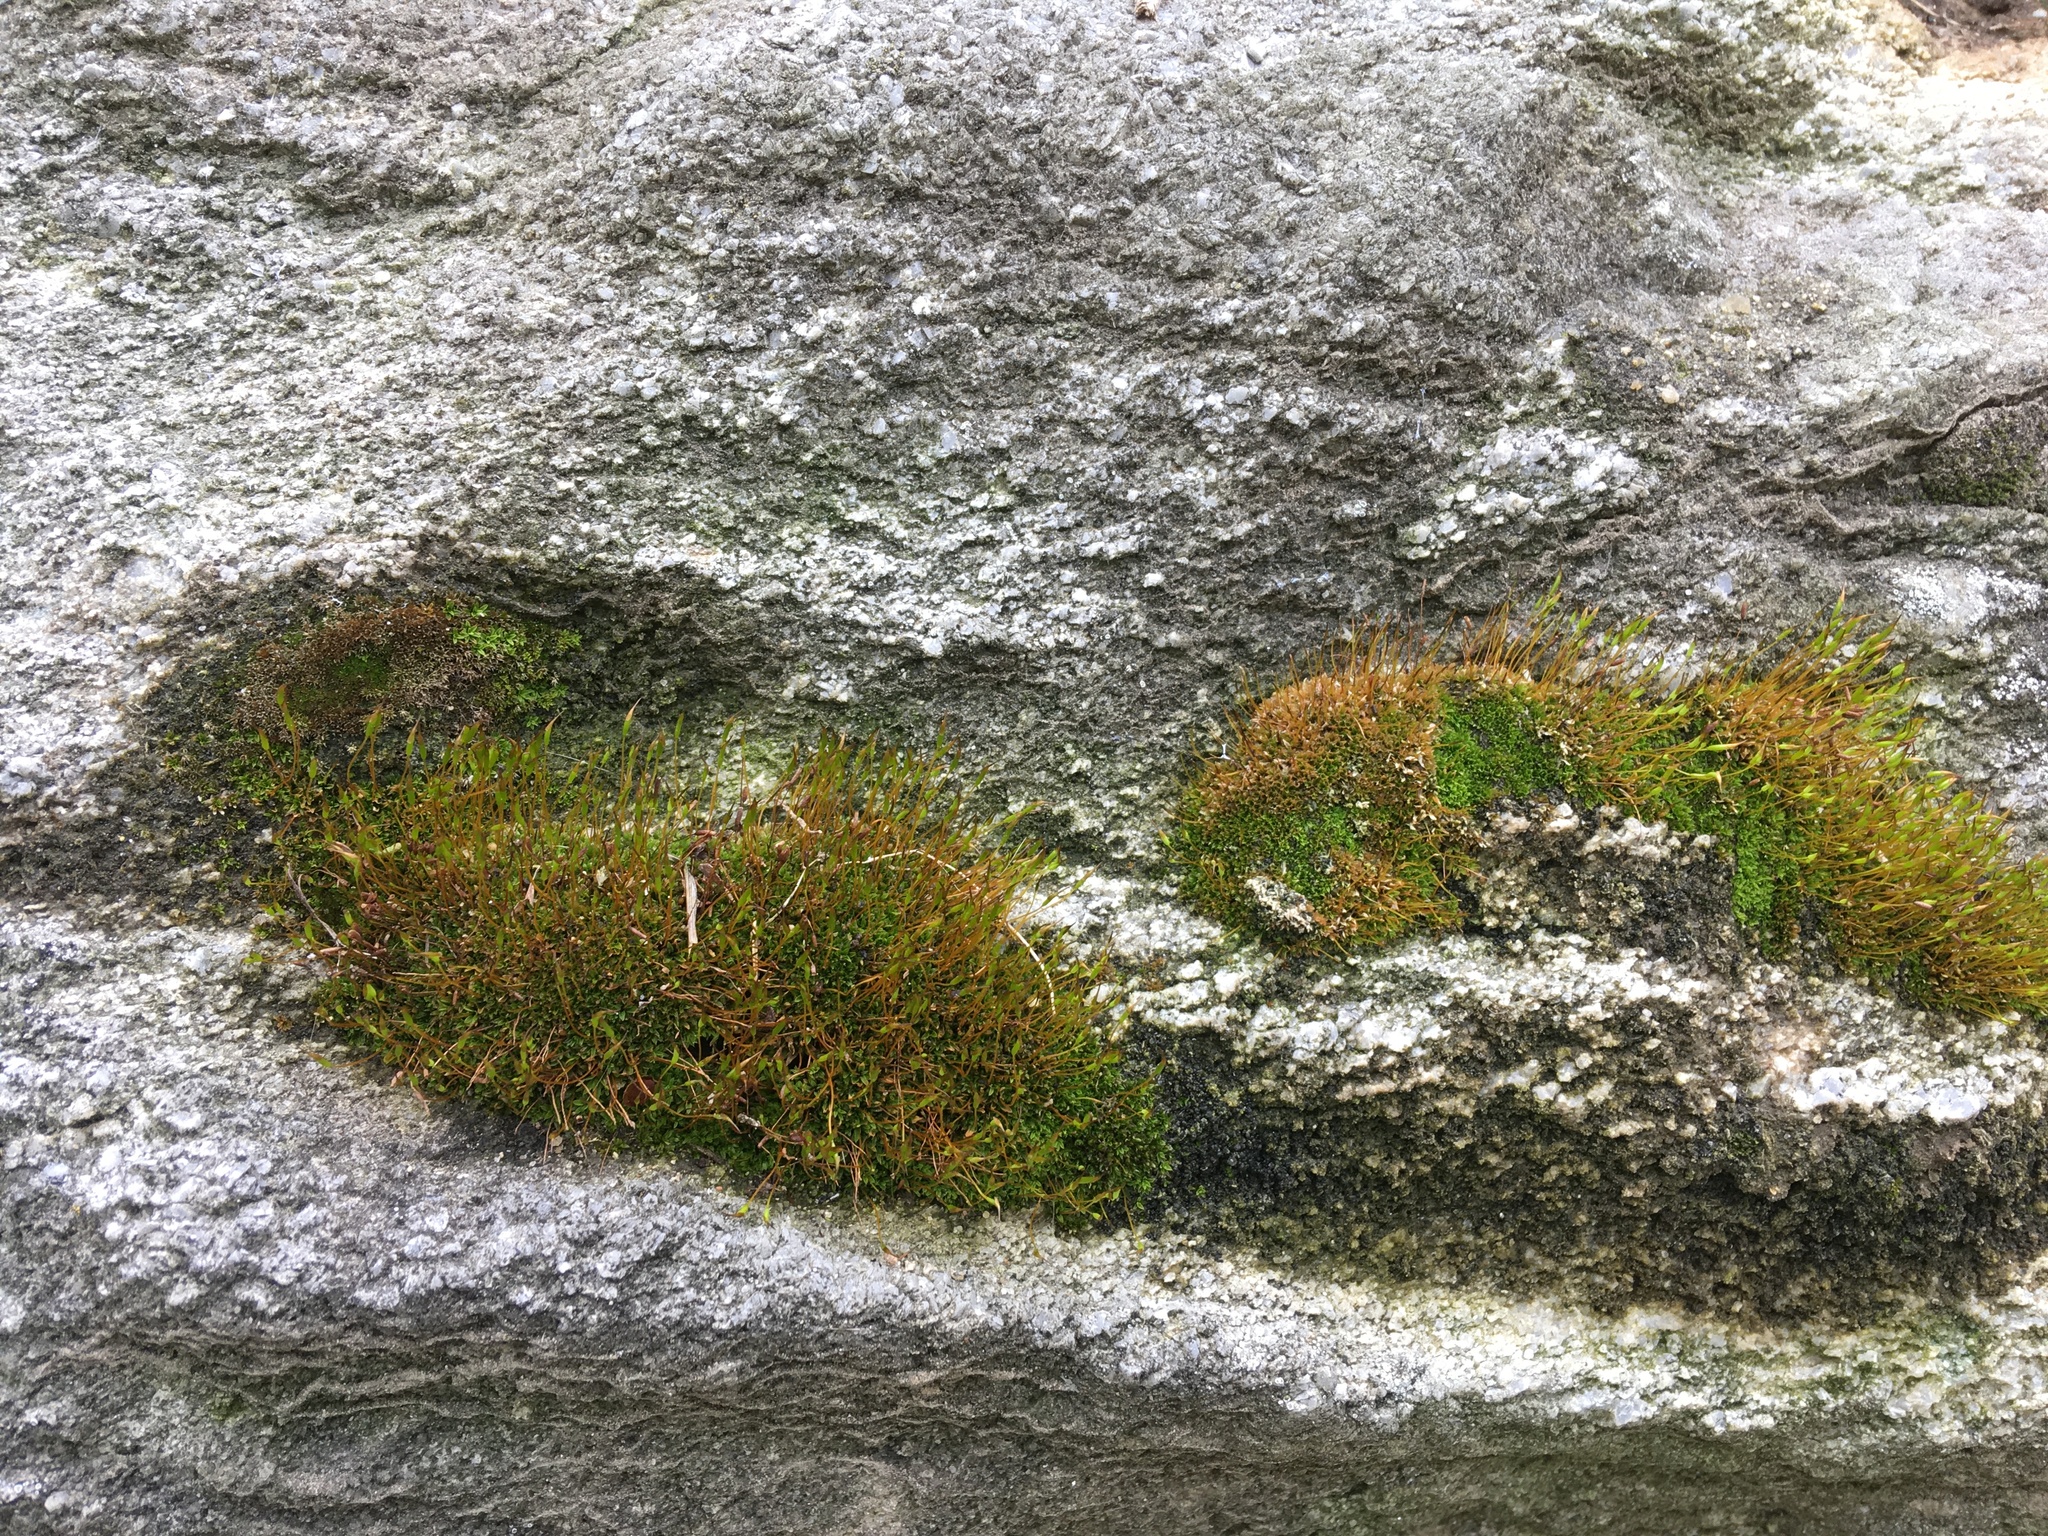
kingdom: Plantae
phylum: Bryophyta
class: Bryopsida
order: Pottiales
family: Pottiaceae
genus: Tortula
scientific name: Tortula muralis
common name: Wall screw-moss
